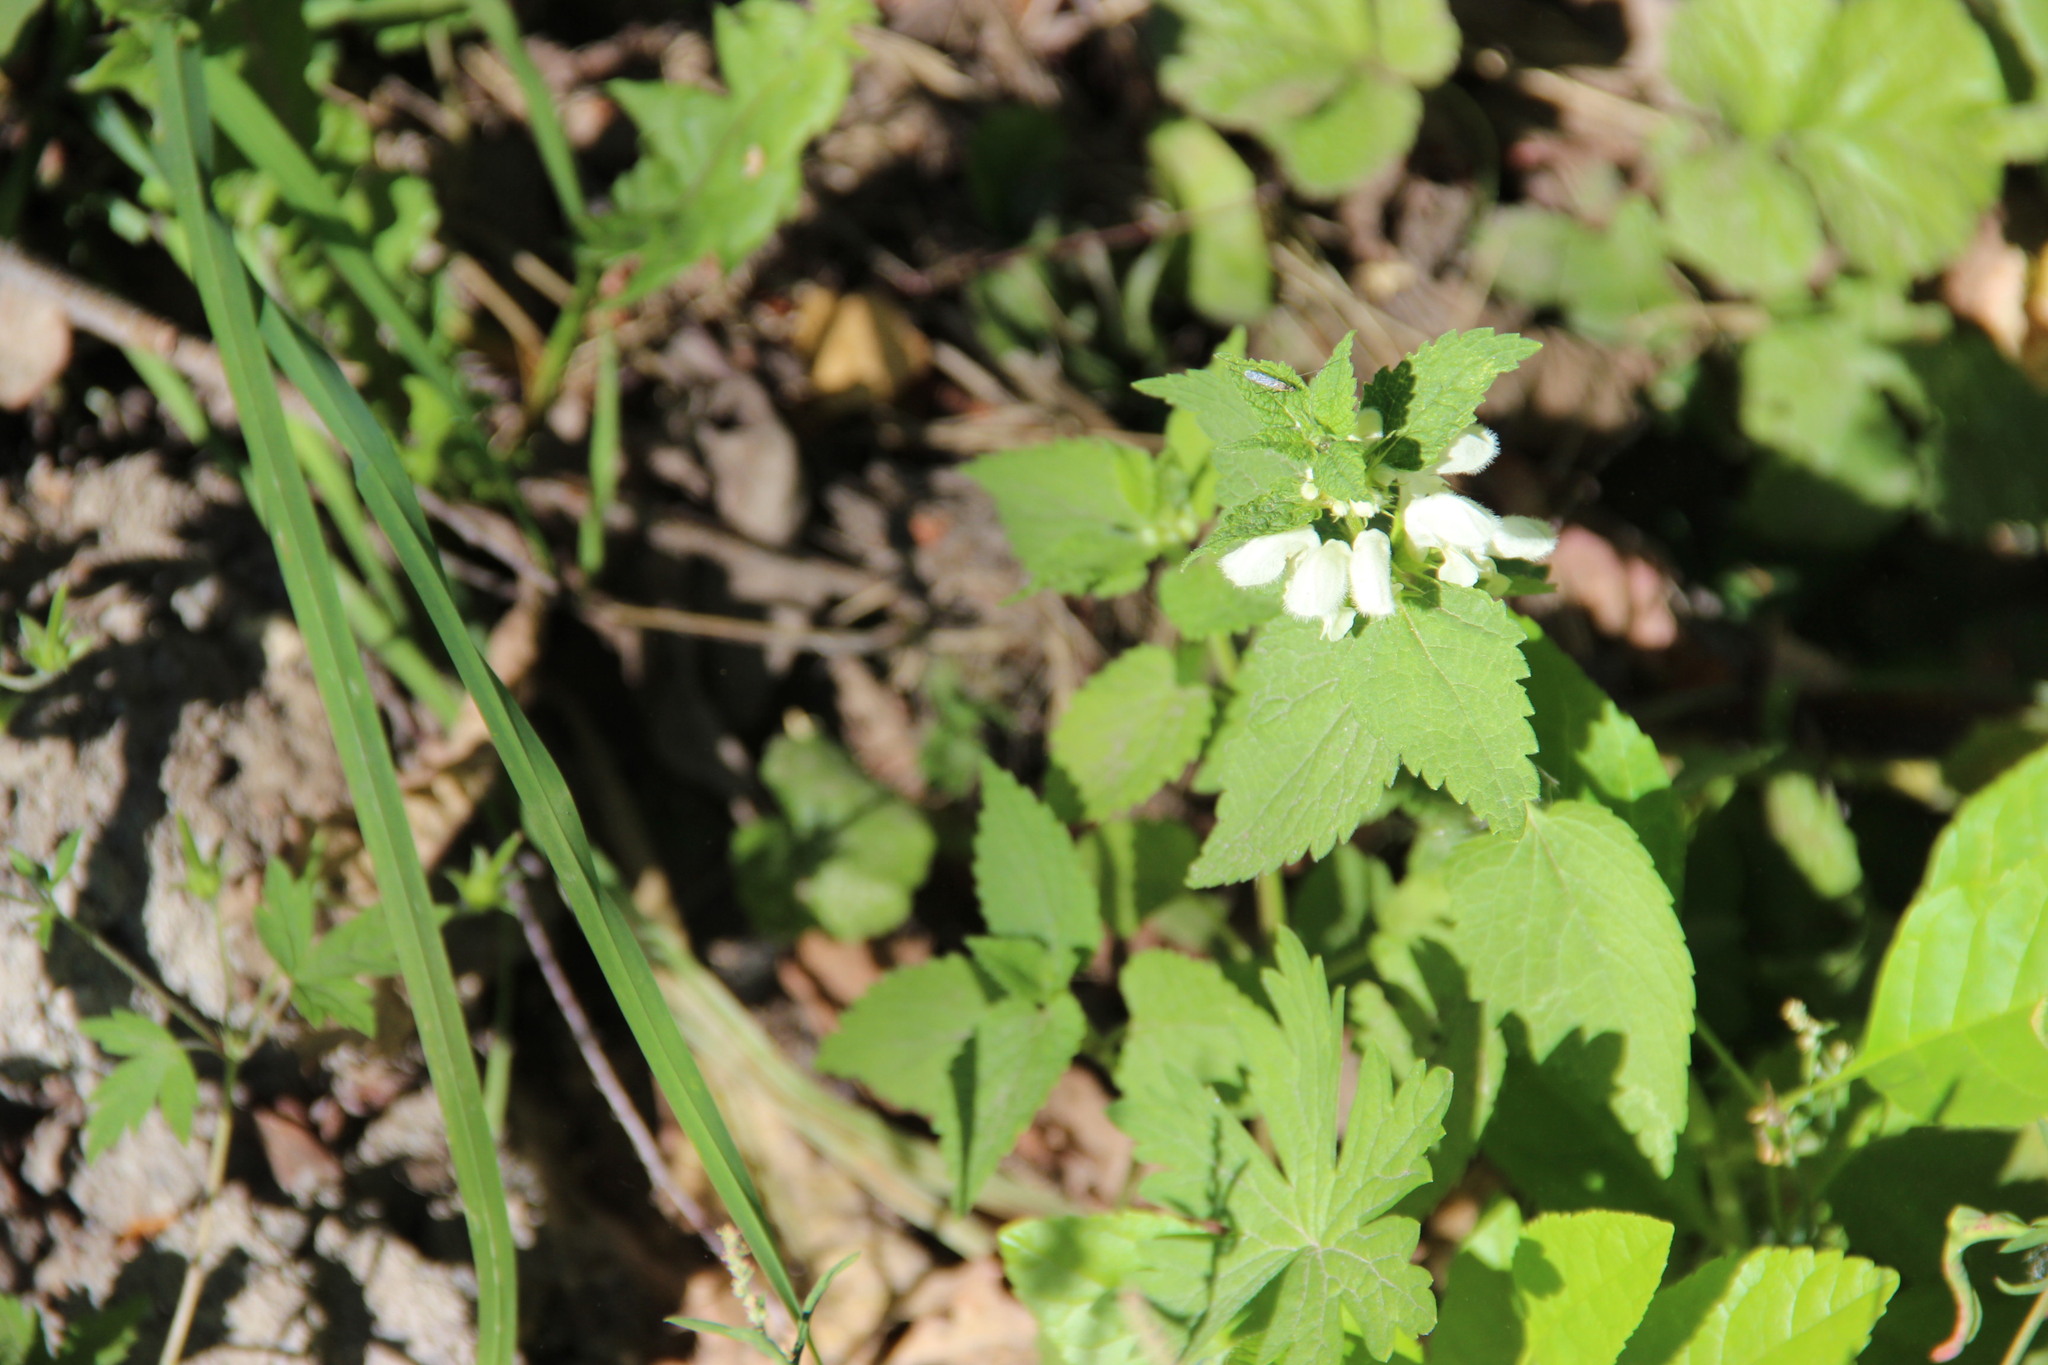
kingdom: Plantae
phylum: Tracheophyta
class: Magnoliopsida
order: Lamiales
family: Lamiaceae
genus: Lamium
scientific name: Lamium album
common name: White dead-nettle
